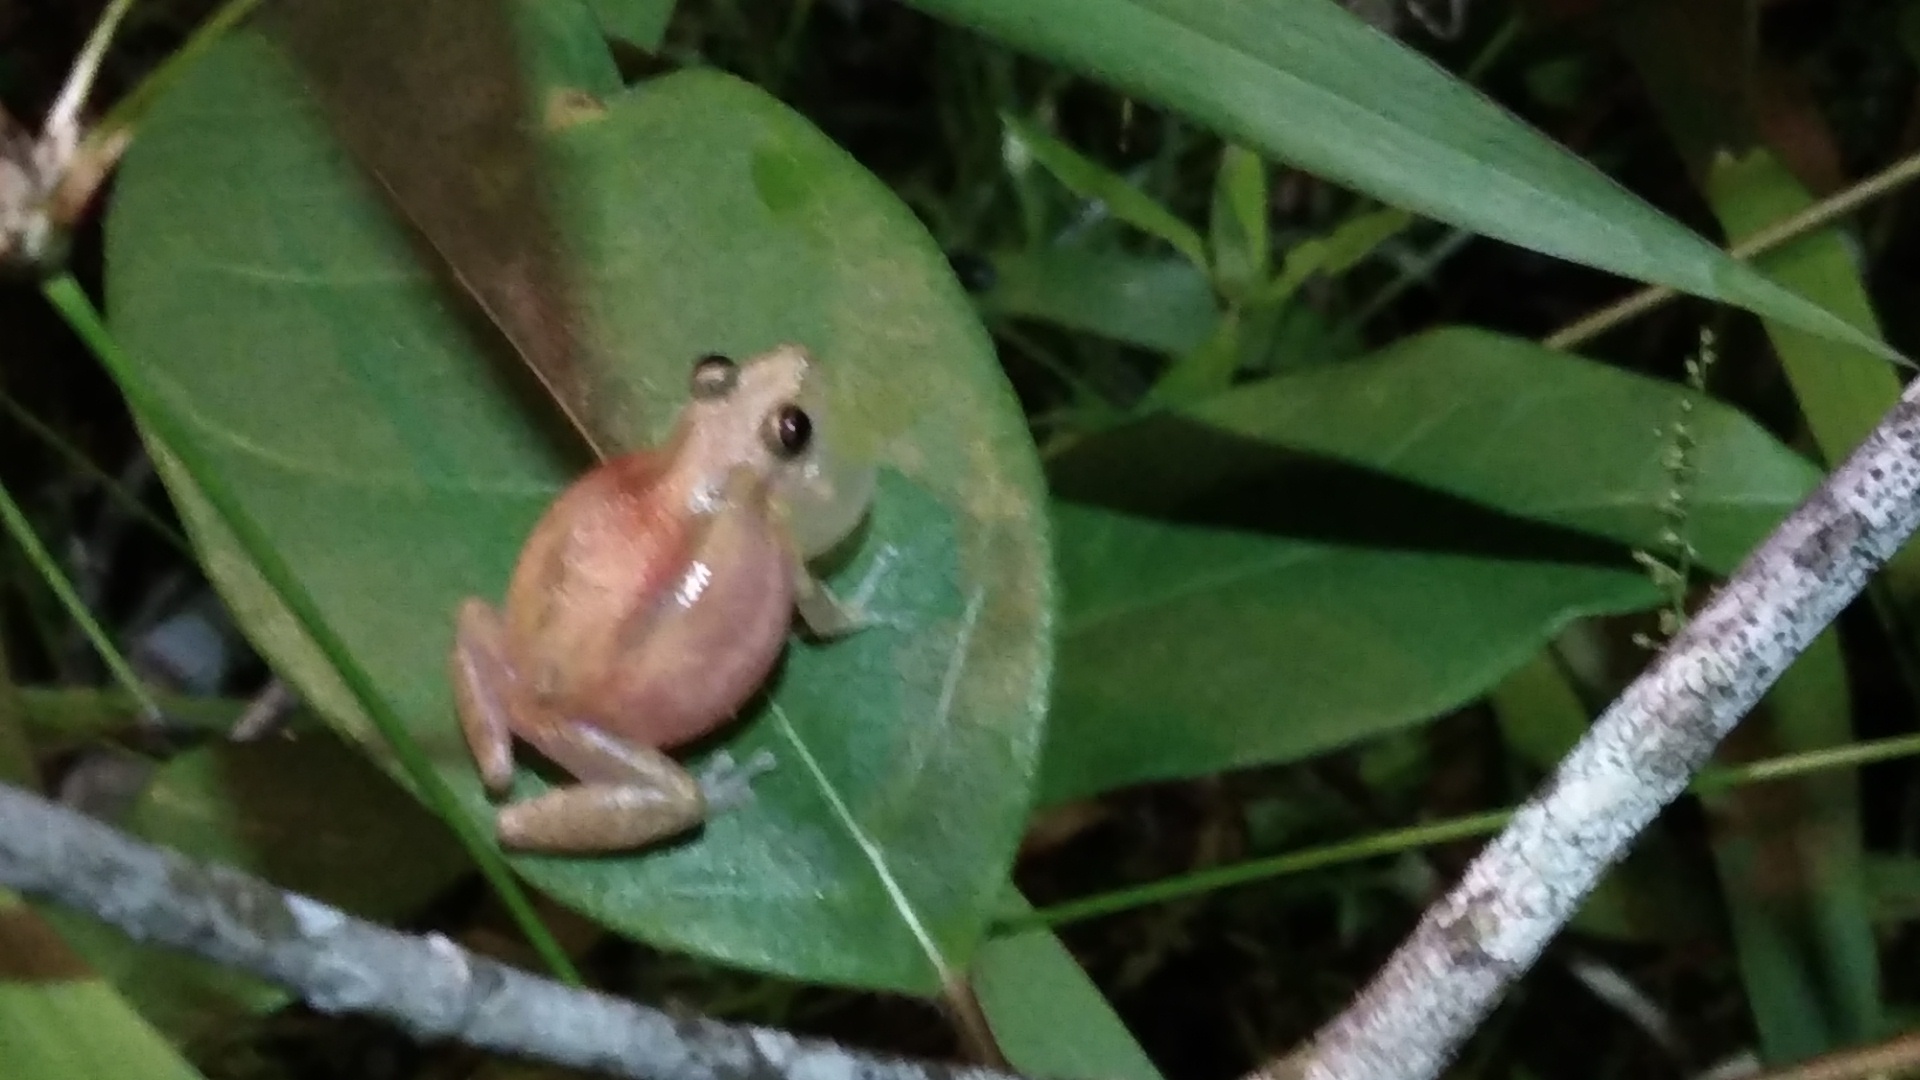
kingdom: Animalia
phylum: Chordata
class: Amphibia
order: Anura
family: Hylidae
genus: Scinax
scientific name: Scinax staufferi
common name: Stauffer's long-nosed treefrog
